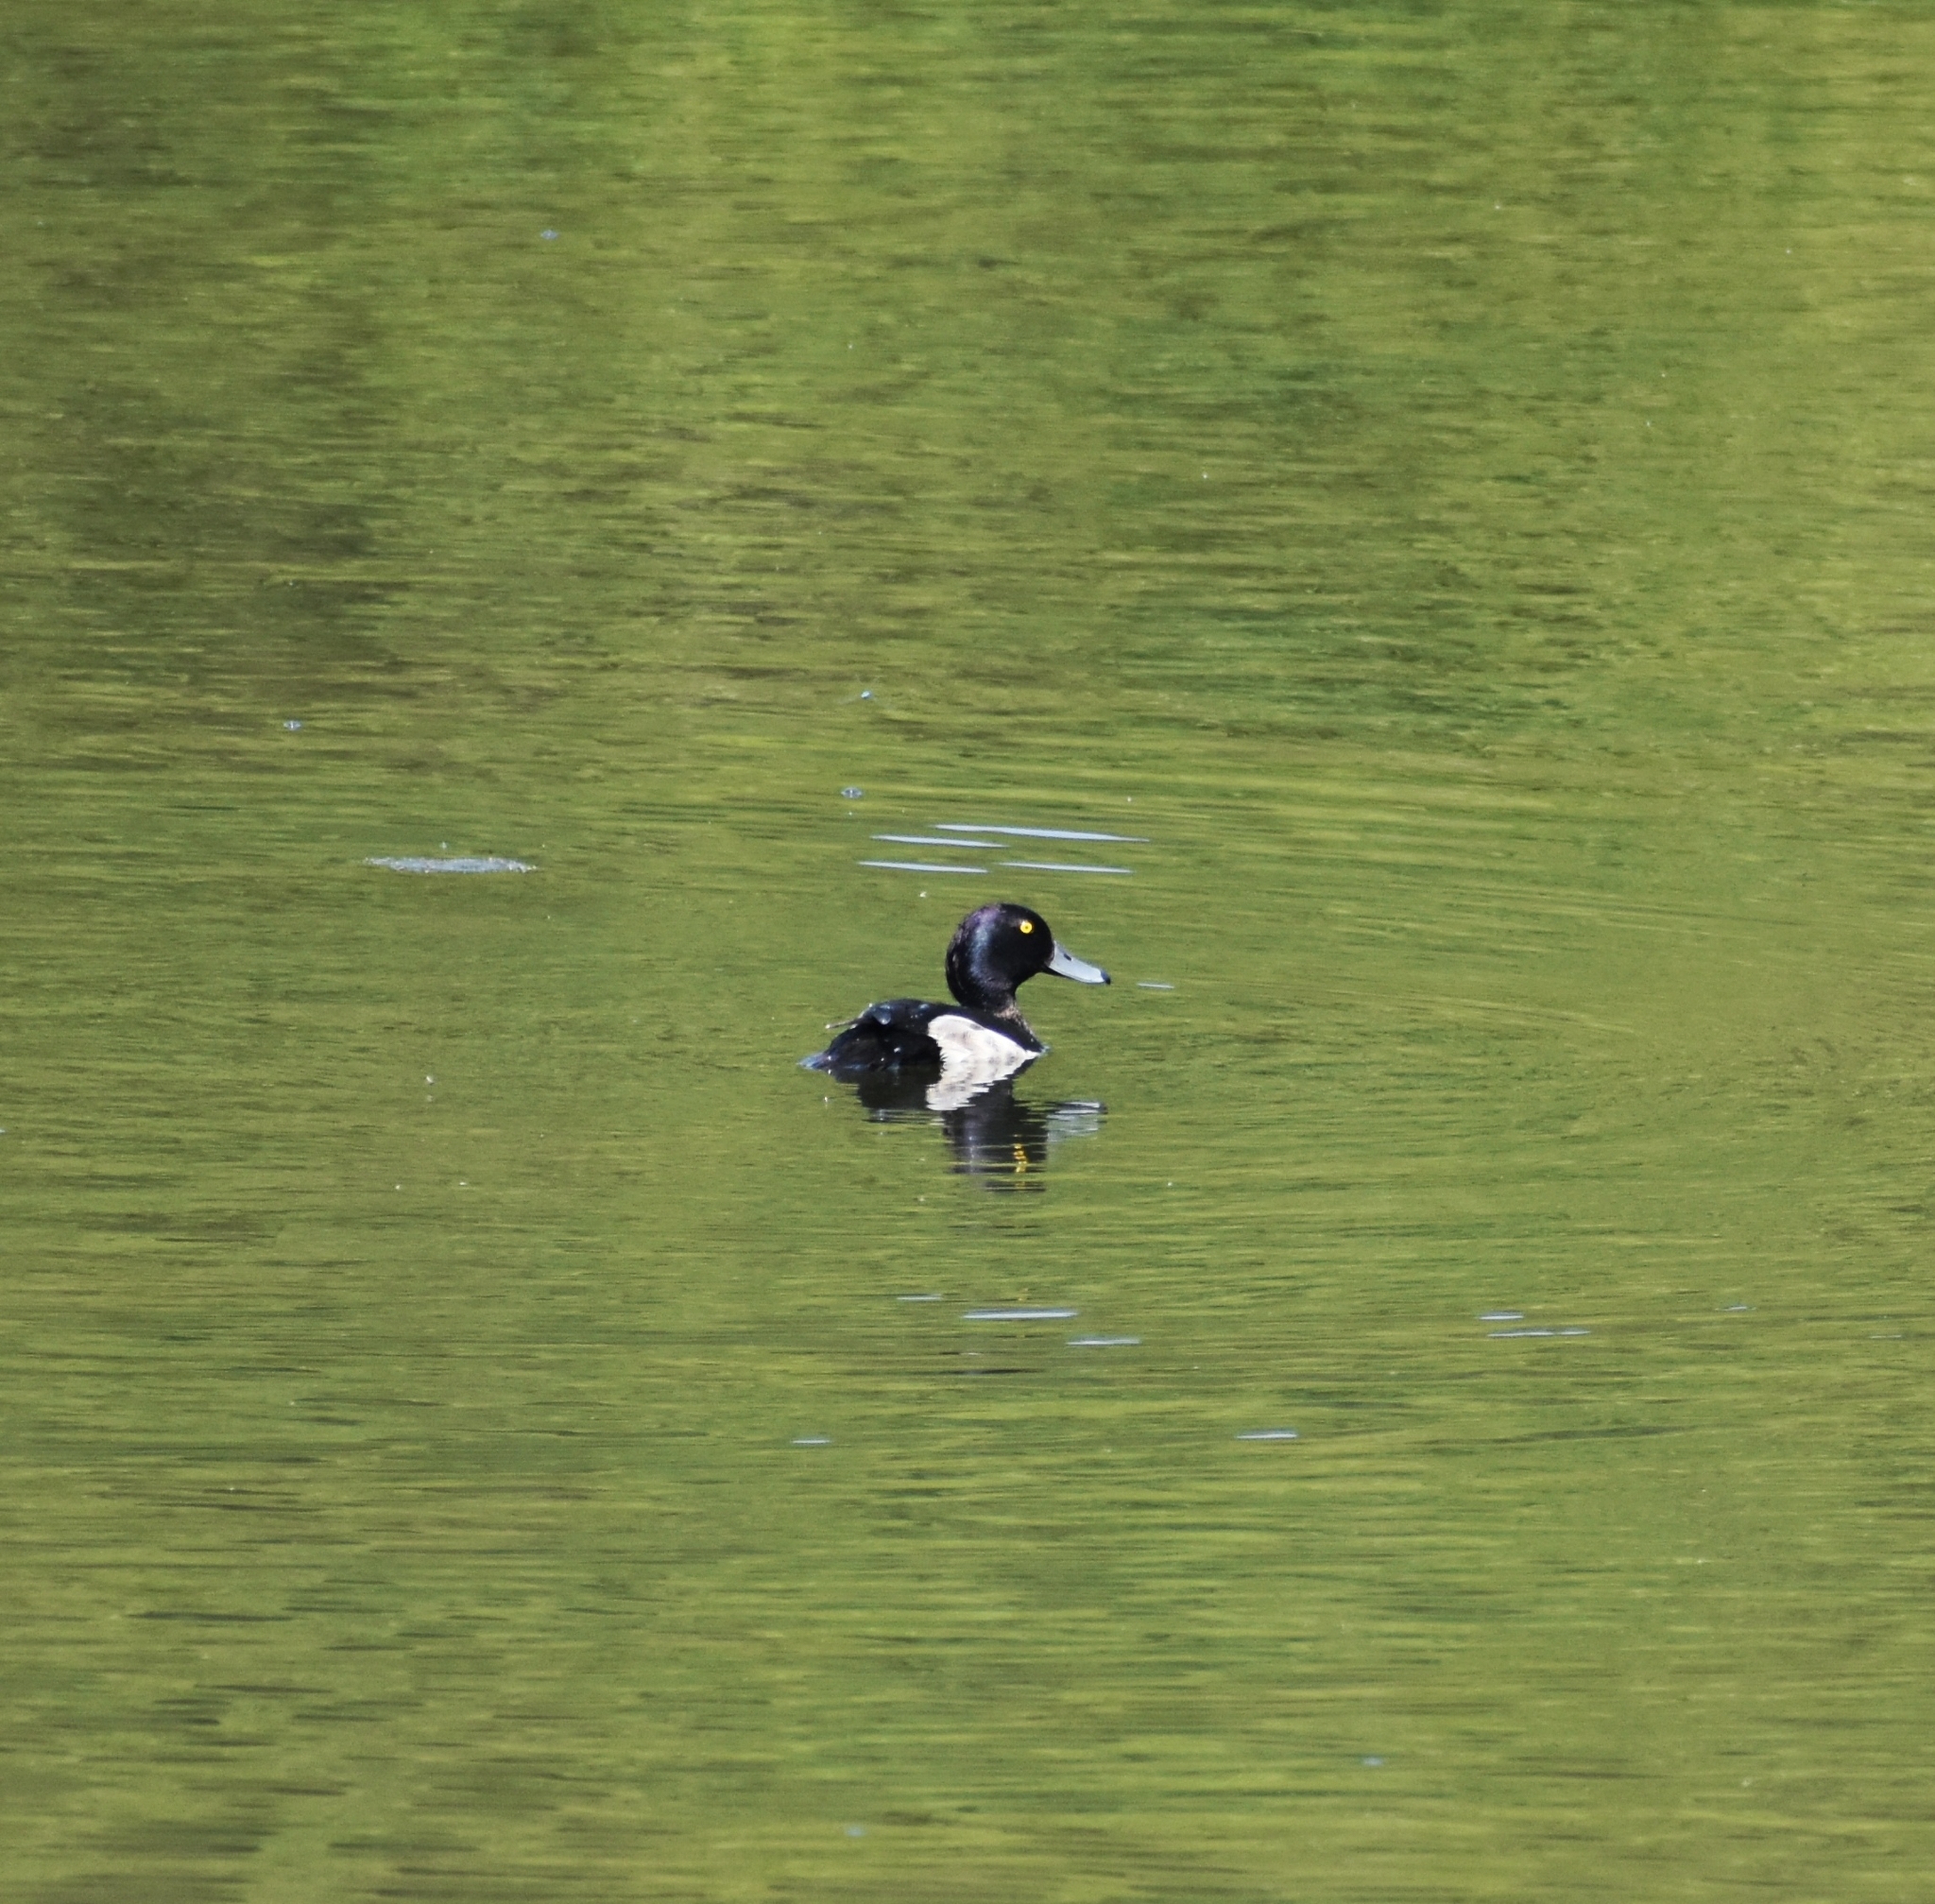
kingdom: Animalia
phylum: Chordata
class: Aves
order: Anseriformes
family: Anatidae
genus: Aythya
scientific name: Aythya collaris
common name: Ring-necked duck
